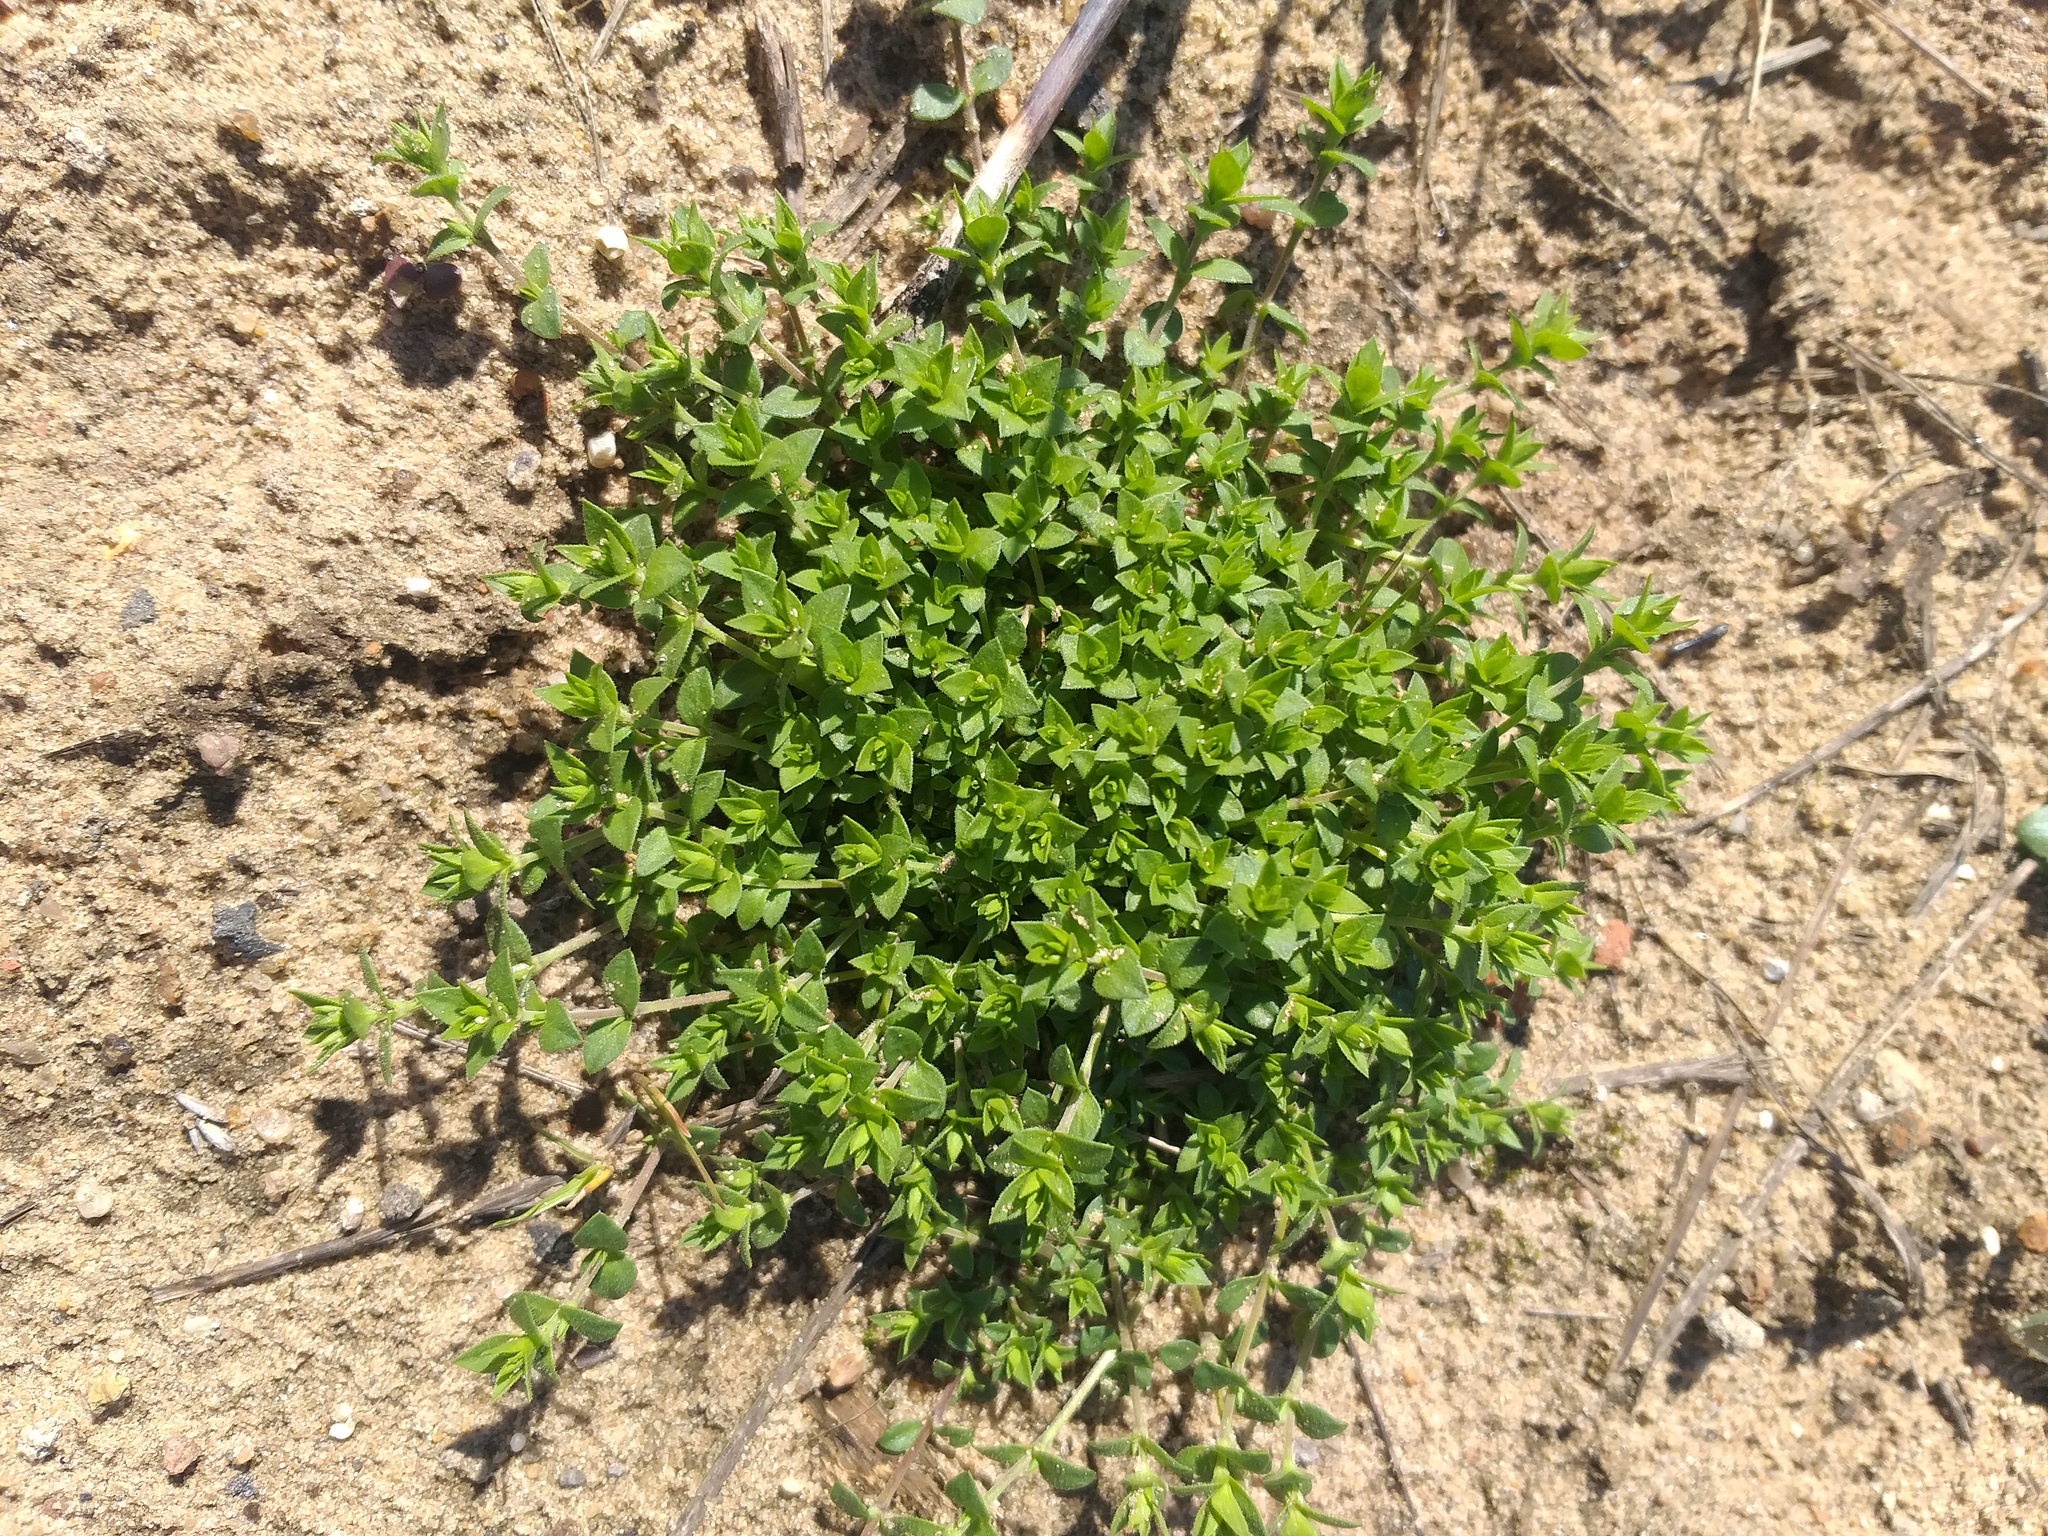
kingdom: Plantae
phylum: Tracheophyta
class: Magnoliopsida
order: Caryophyllales
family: Caryophyllaceae
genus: Arenaria
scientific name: Arenaria serpyllifolia
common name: Thyme-leaved sandwort
